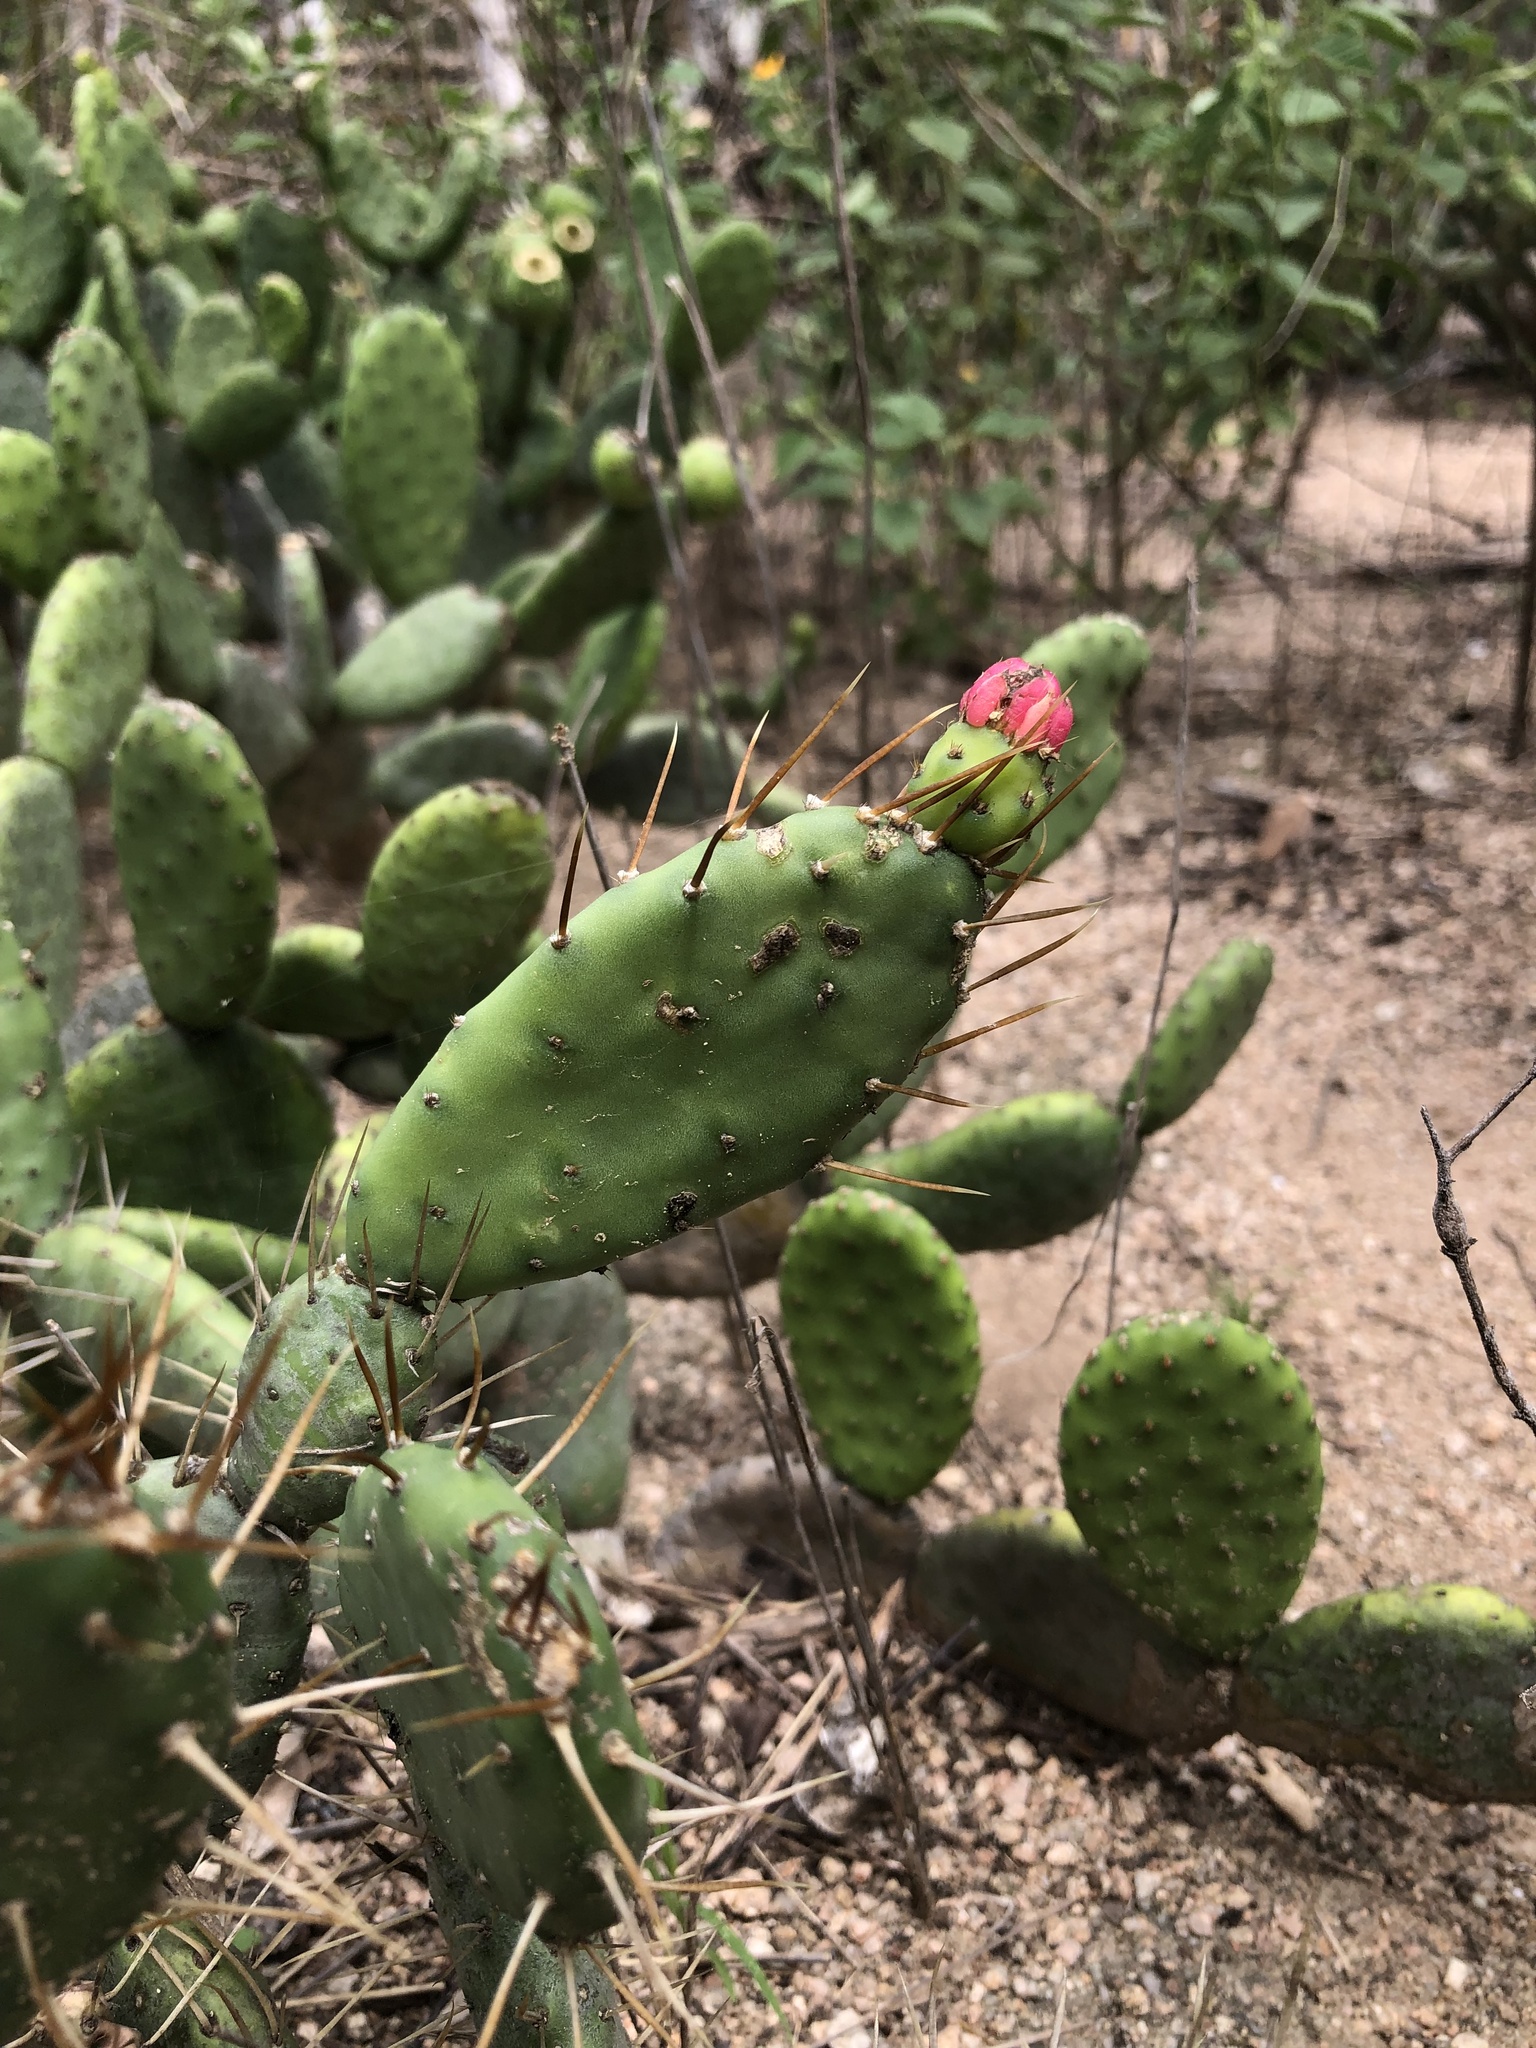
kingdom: Plantae
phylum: Tracheophyta
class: Magnoliopsida
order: Caryophyllales
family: Cactaceae
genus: Tacinga
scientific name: Tacinga quipa
